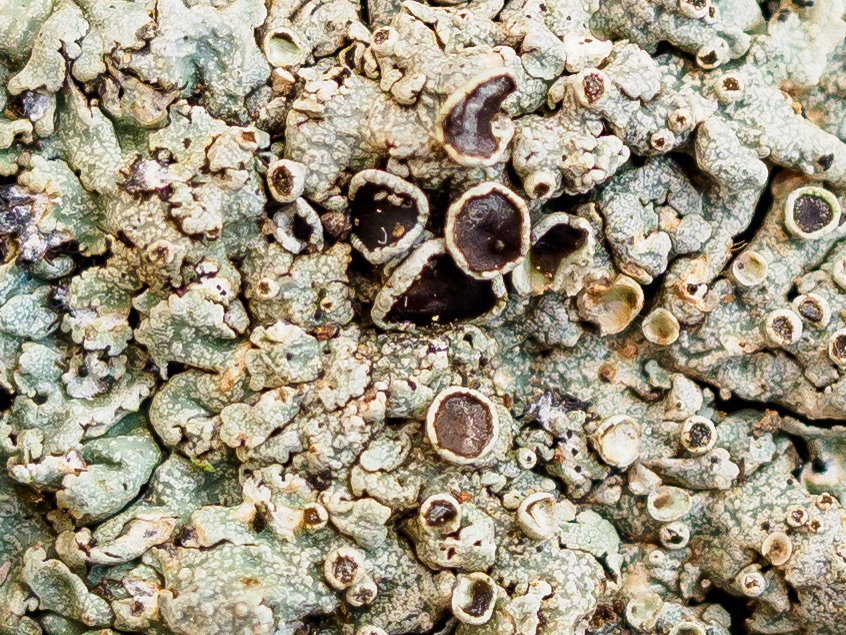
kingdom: Fungi
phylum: Ascomycota
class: Lecanoromycetes
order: Caliciales
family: Physciaceae
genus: Physcia
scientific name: Physcia aipolia
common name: Hoary rosette lichen
